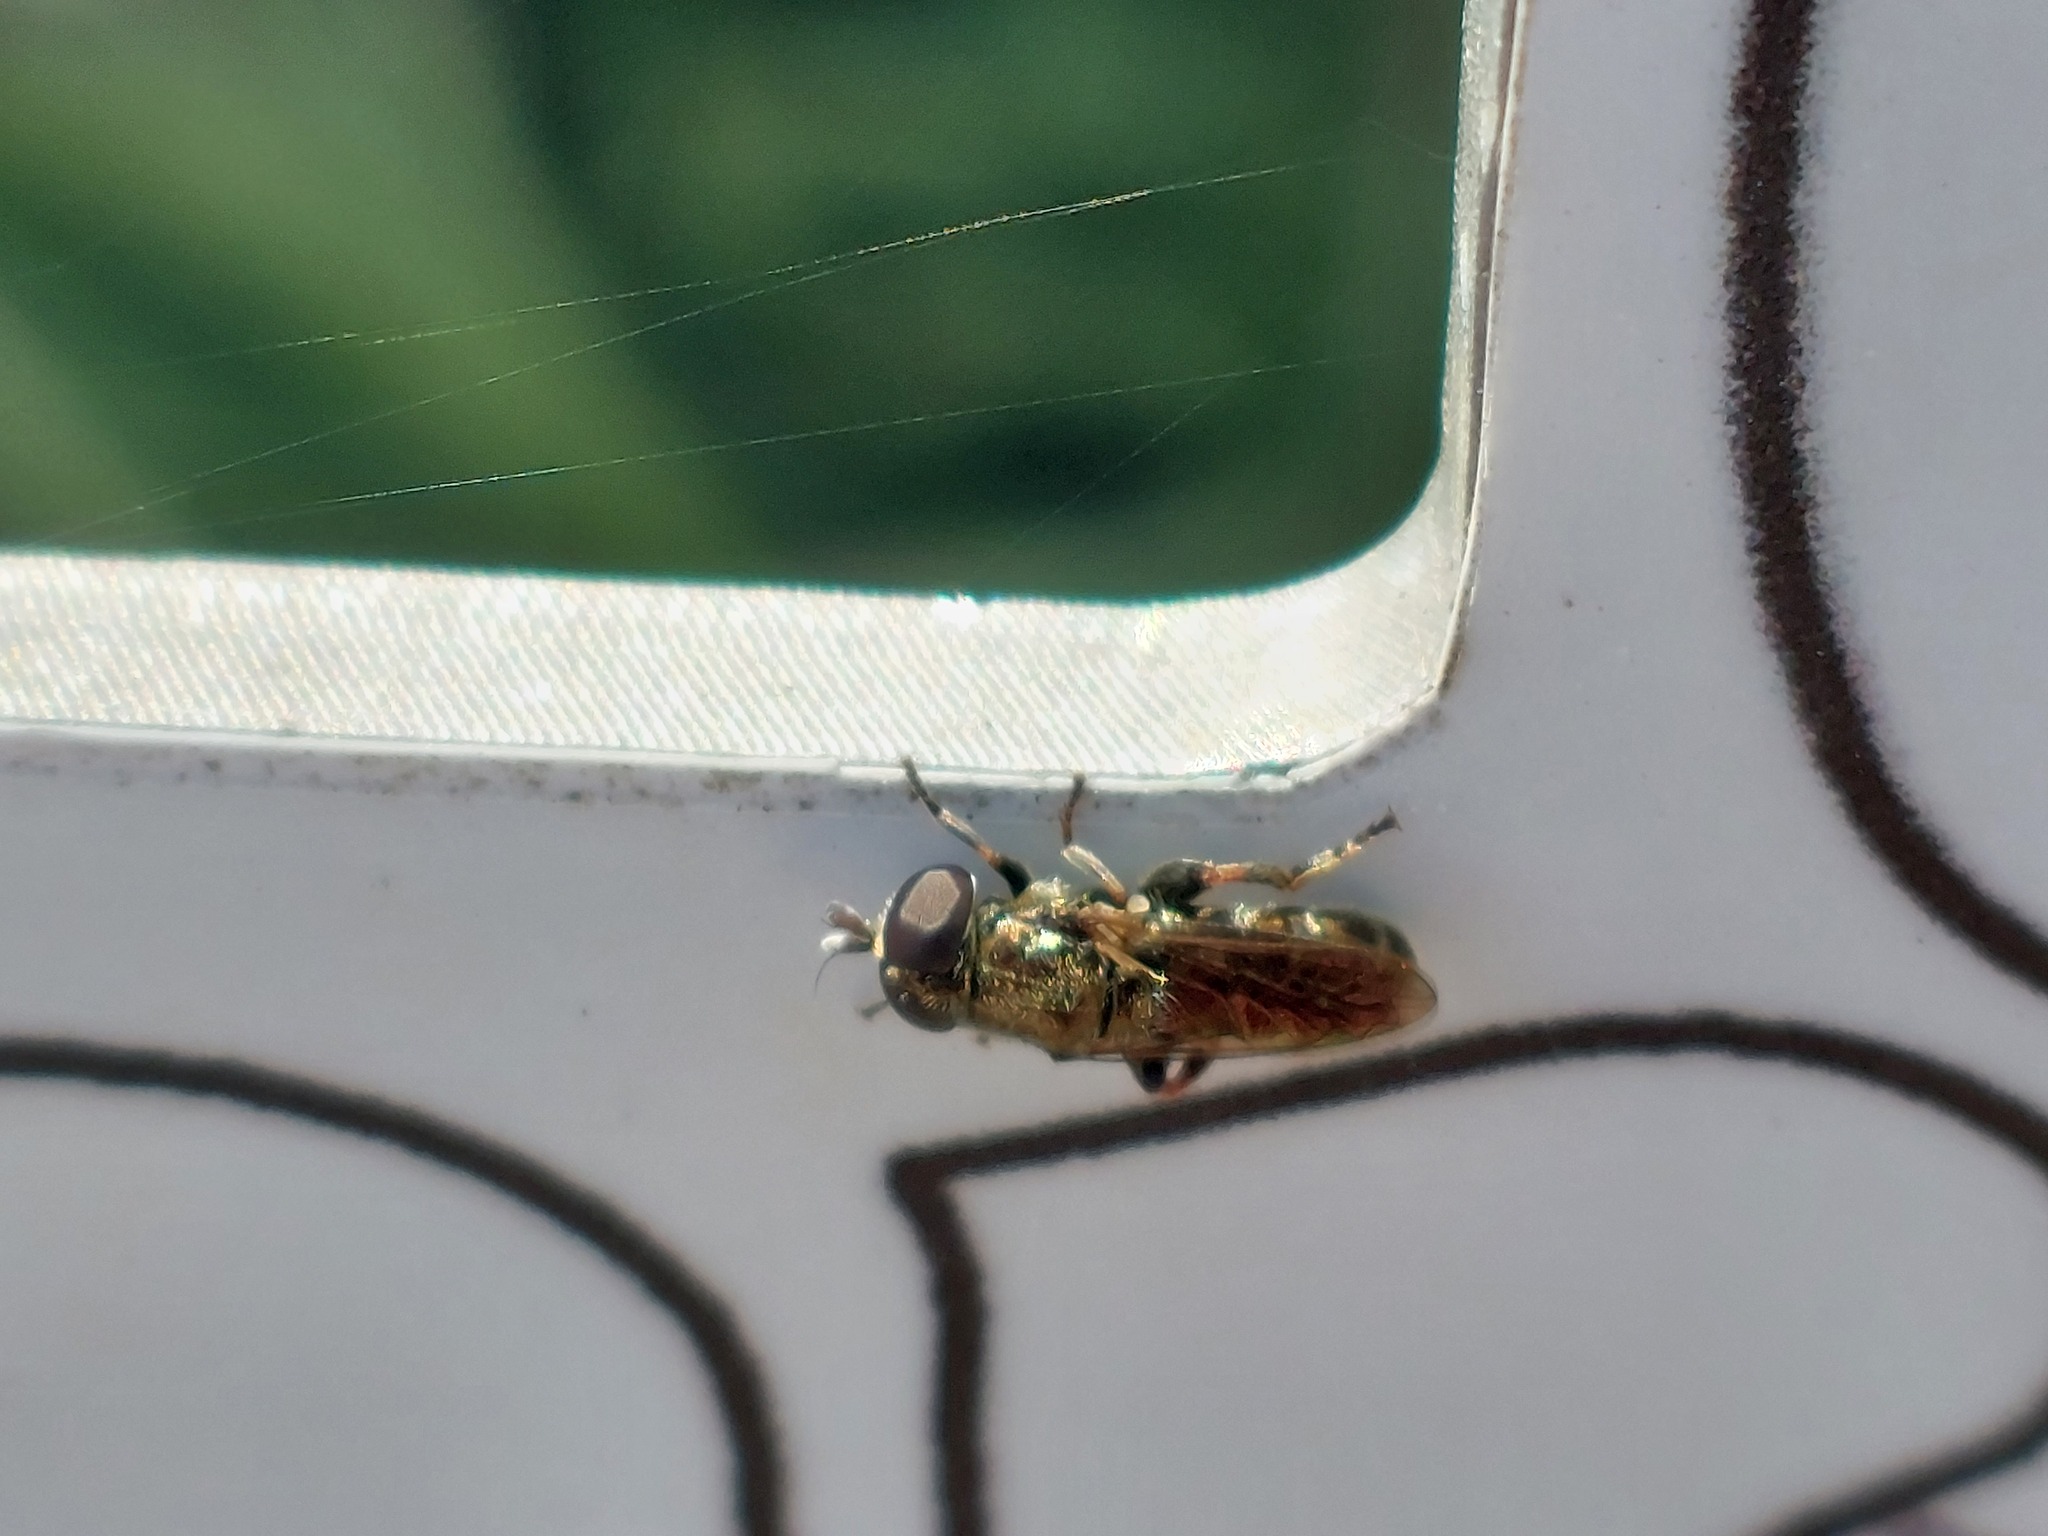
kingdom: Animalia
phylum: Arthropoda
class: Insecta
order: Diptera
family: Syrphidae
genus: Eumerus
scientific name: Eumerus
